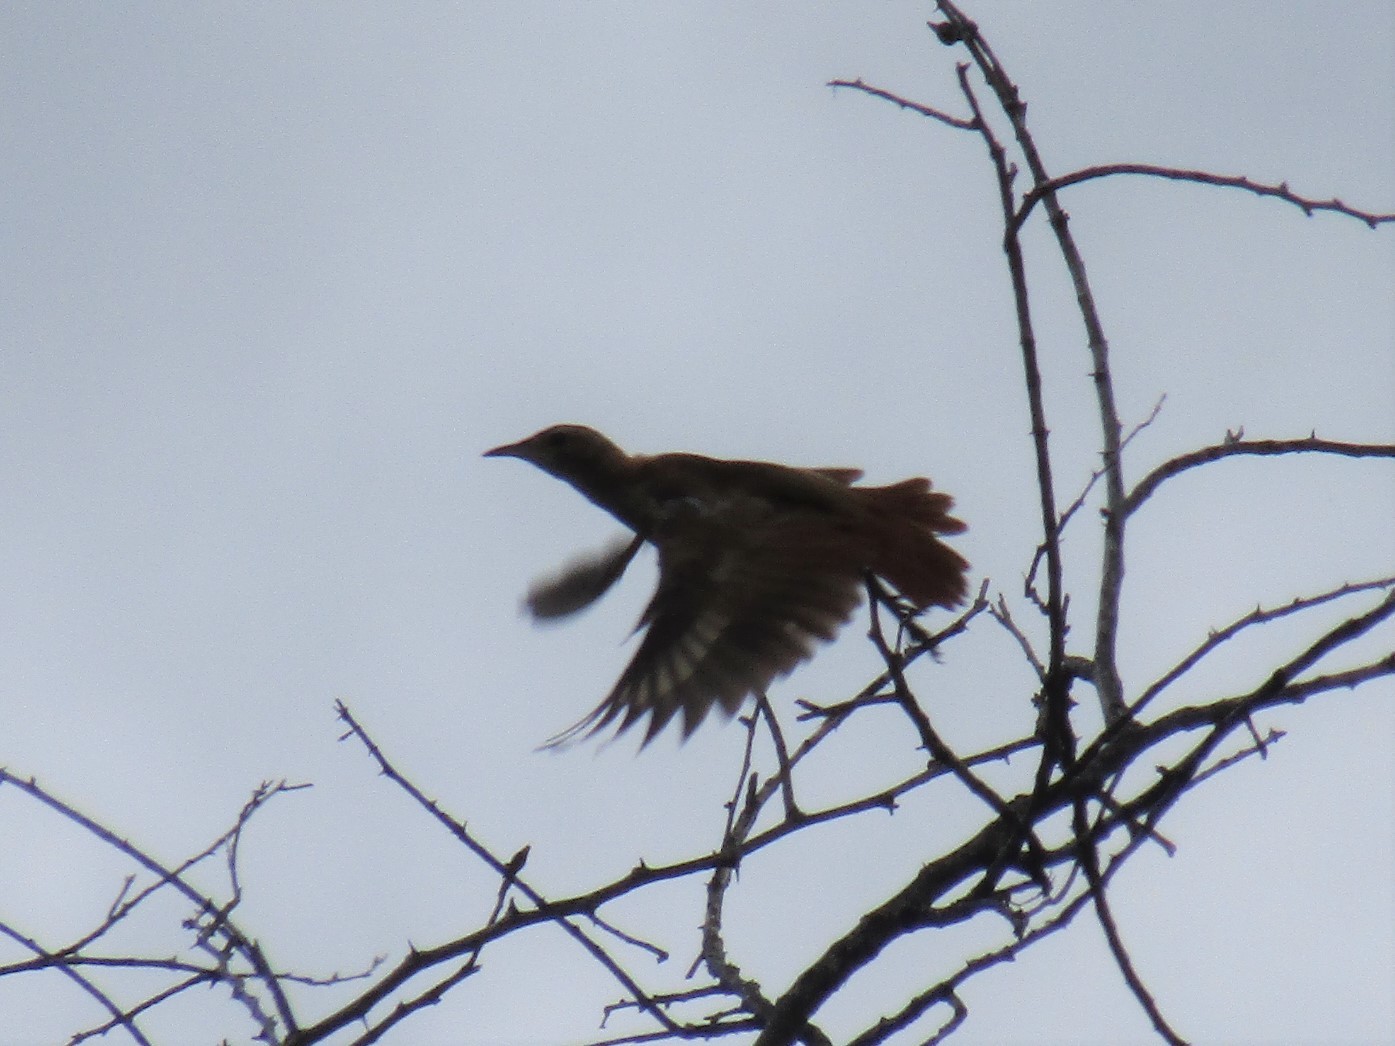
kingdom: Animalia
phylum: Chordata
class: Aves
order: Passeriformes
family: Furnariidae
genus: Furnarius
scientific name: Furnarius rufus
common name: Rufous hornero
